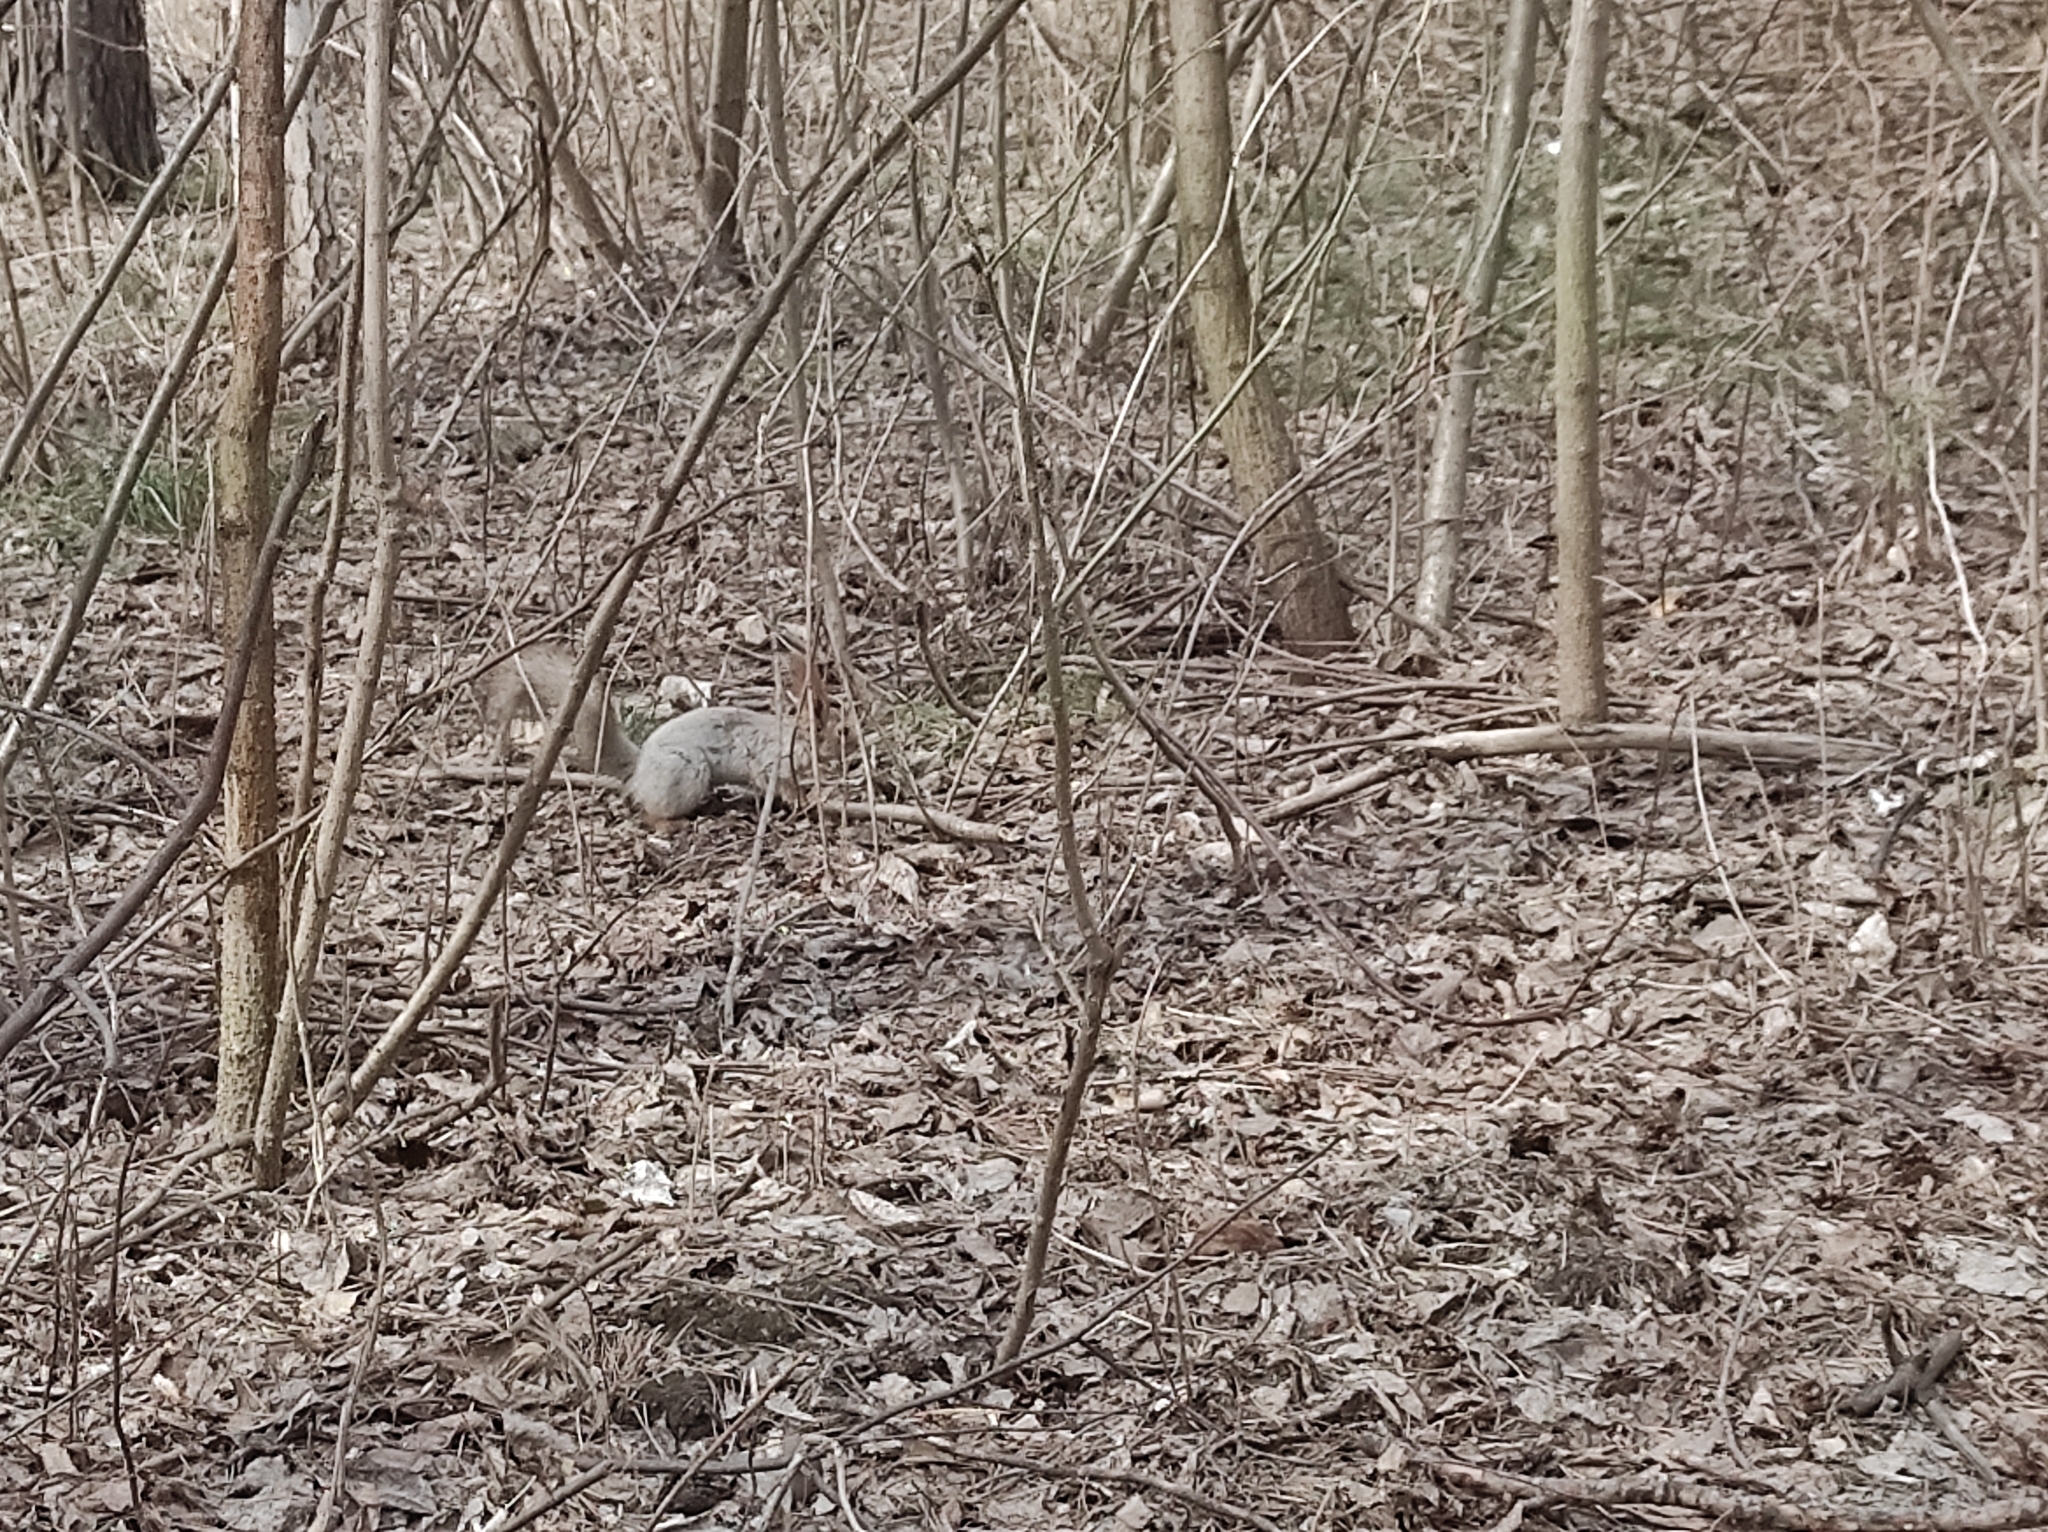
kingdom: Animalia
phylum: Chordata
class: Mammalia
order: Rodentia
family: Sciuridae
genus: Sciurus
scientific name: Sciurus vulgaris
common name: Eurasian red squirrel
